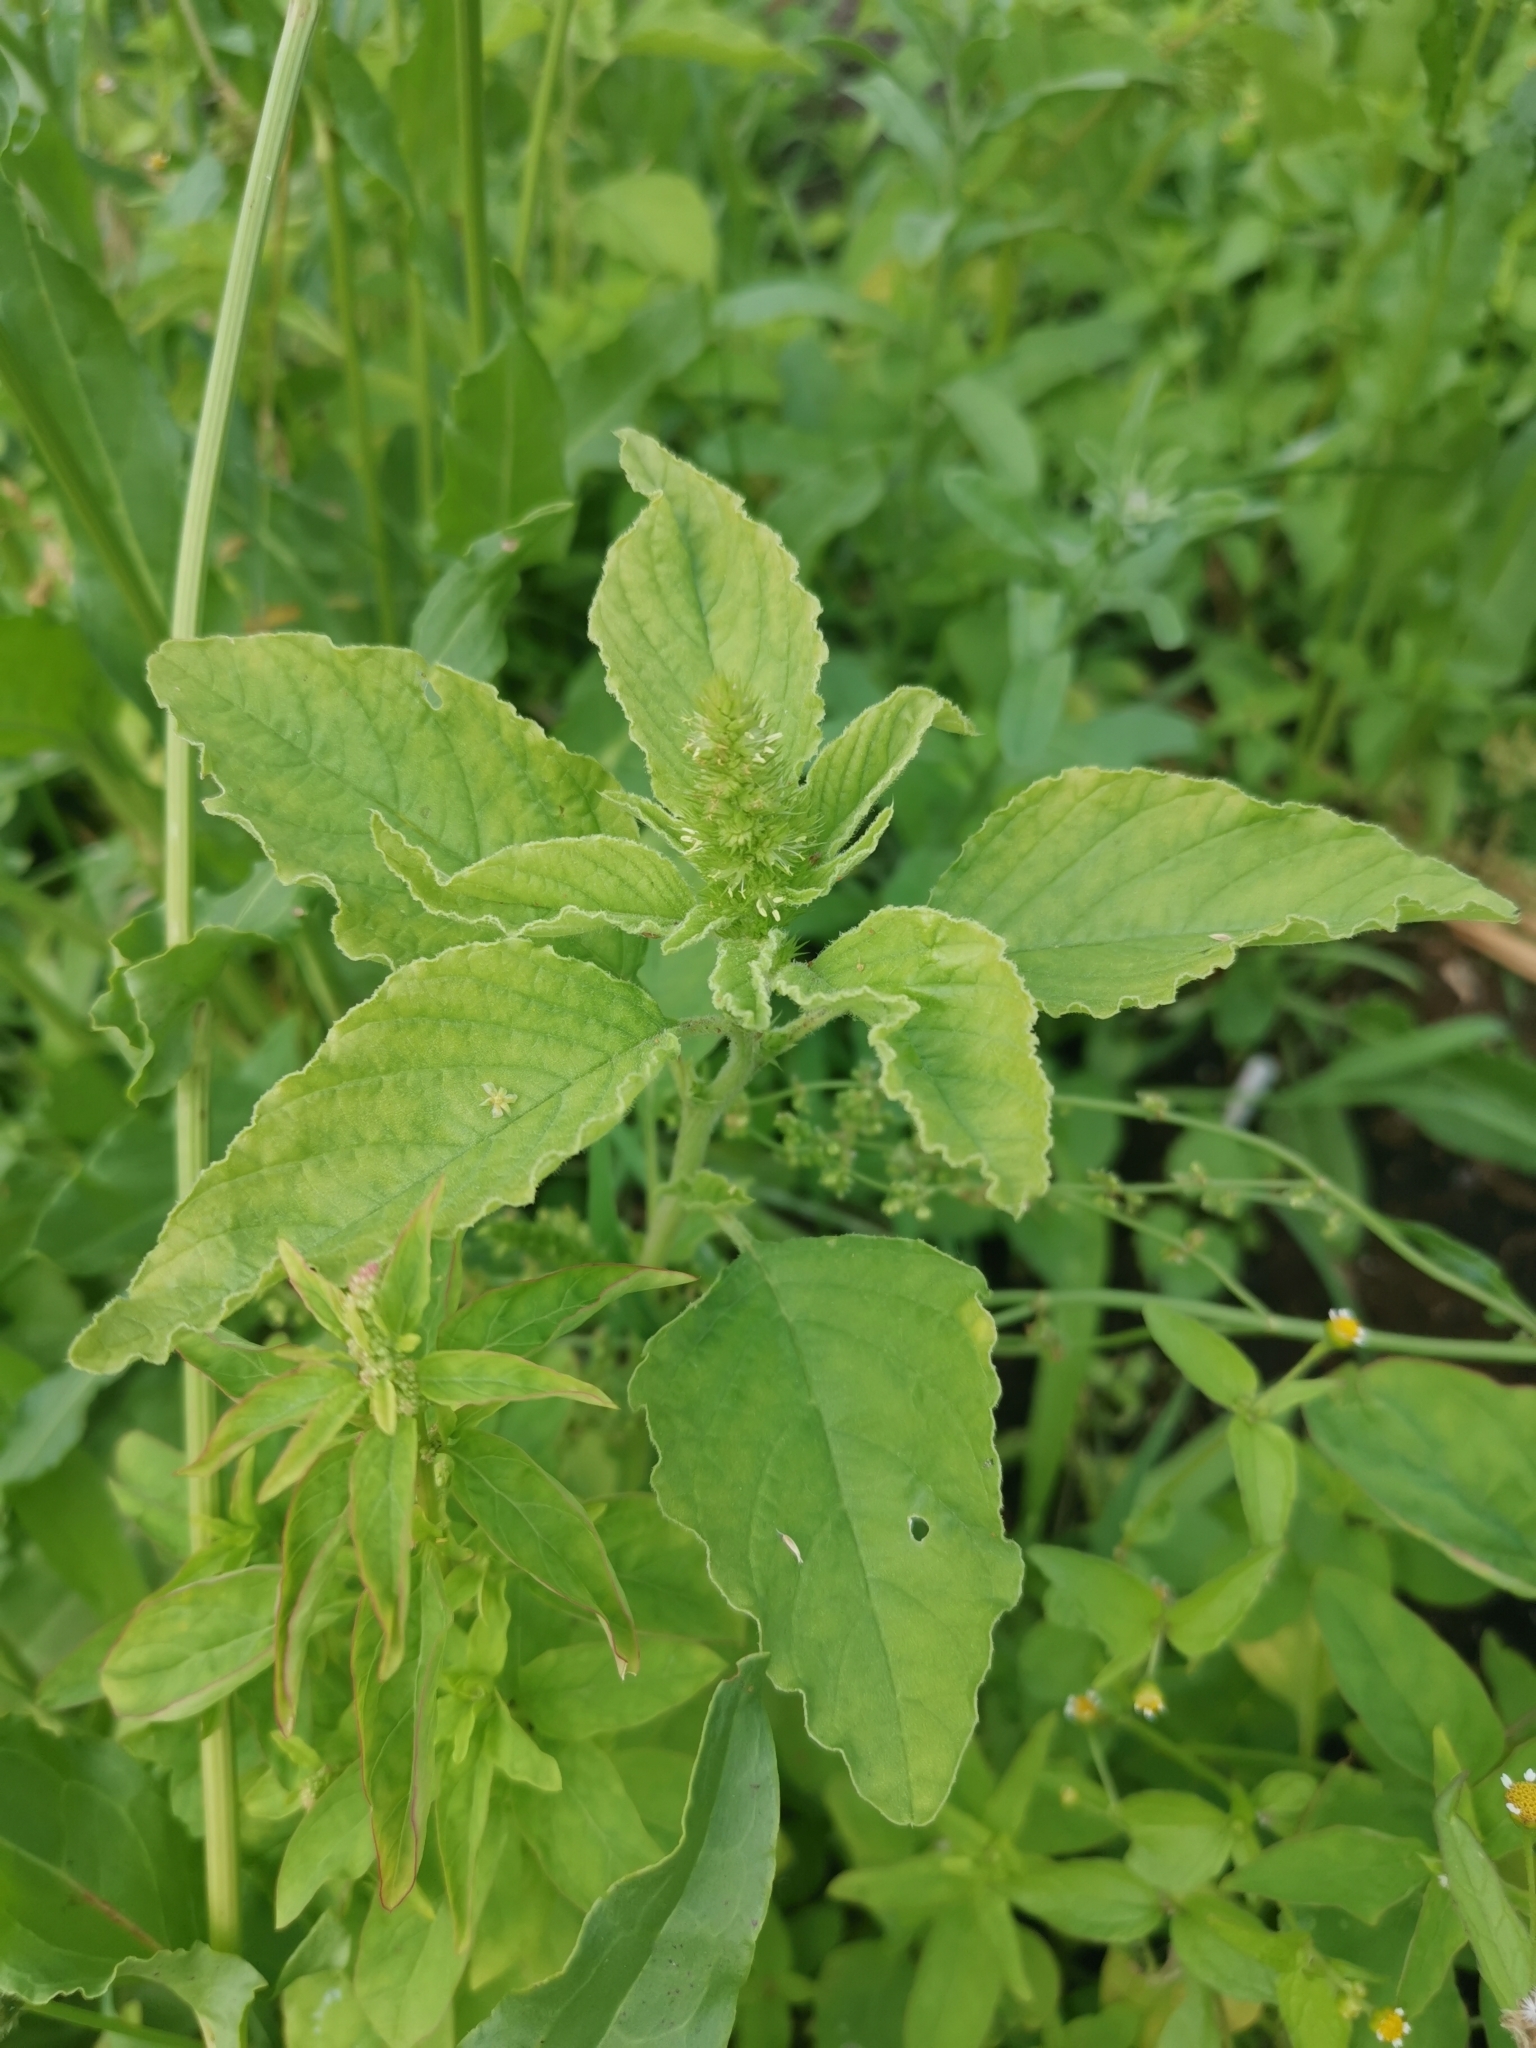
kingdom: Plantae
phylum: Tracheophyta
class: Magnoliopsida
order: Caryophyllales
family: Amaranthaceae
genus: Amaranthus
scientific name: Amaranthus retroflexus
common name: Redroot amaranth
